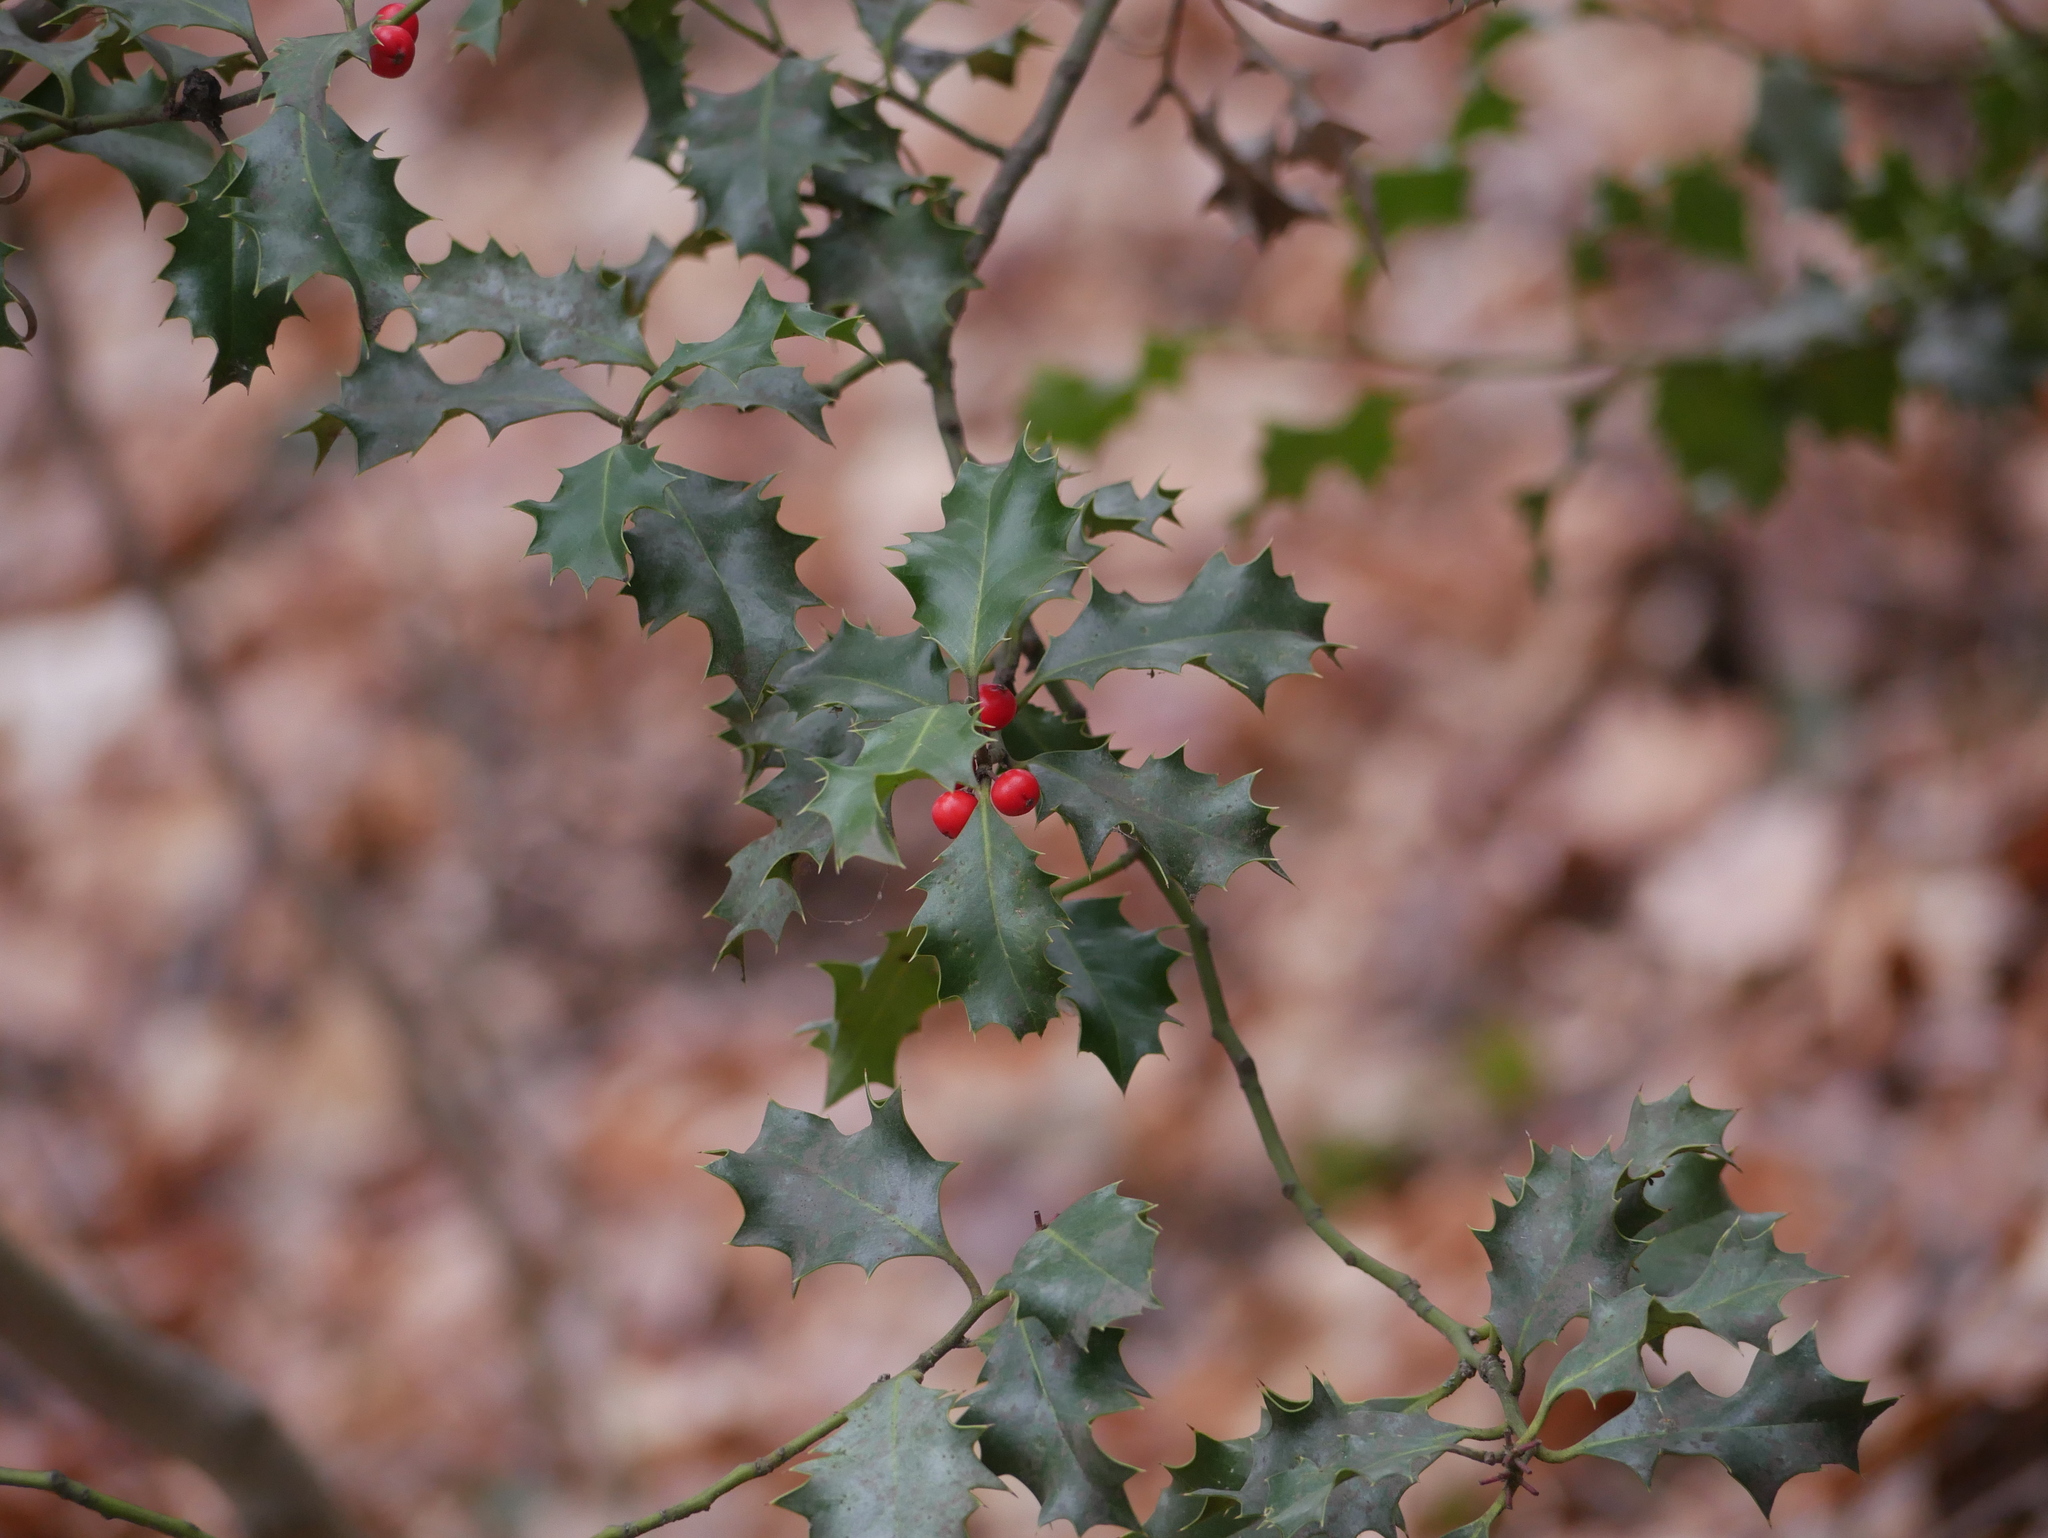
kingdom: Plantae
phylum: Tracheophyta
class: Magnoliopsida
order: Aquifoliales
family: Aquifoliaceae
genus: Ilex
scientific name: Ilex aquifolium
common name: English holly
